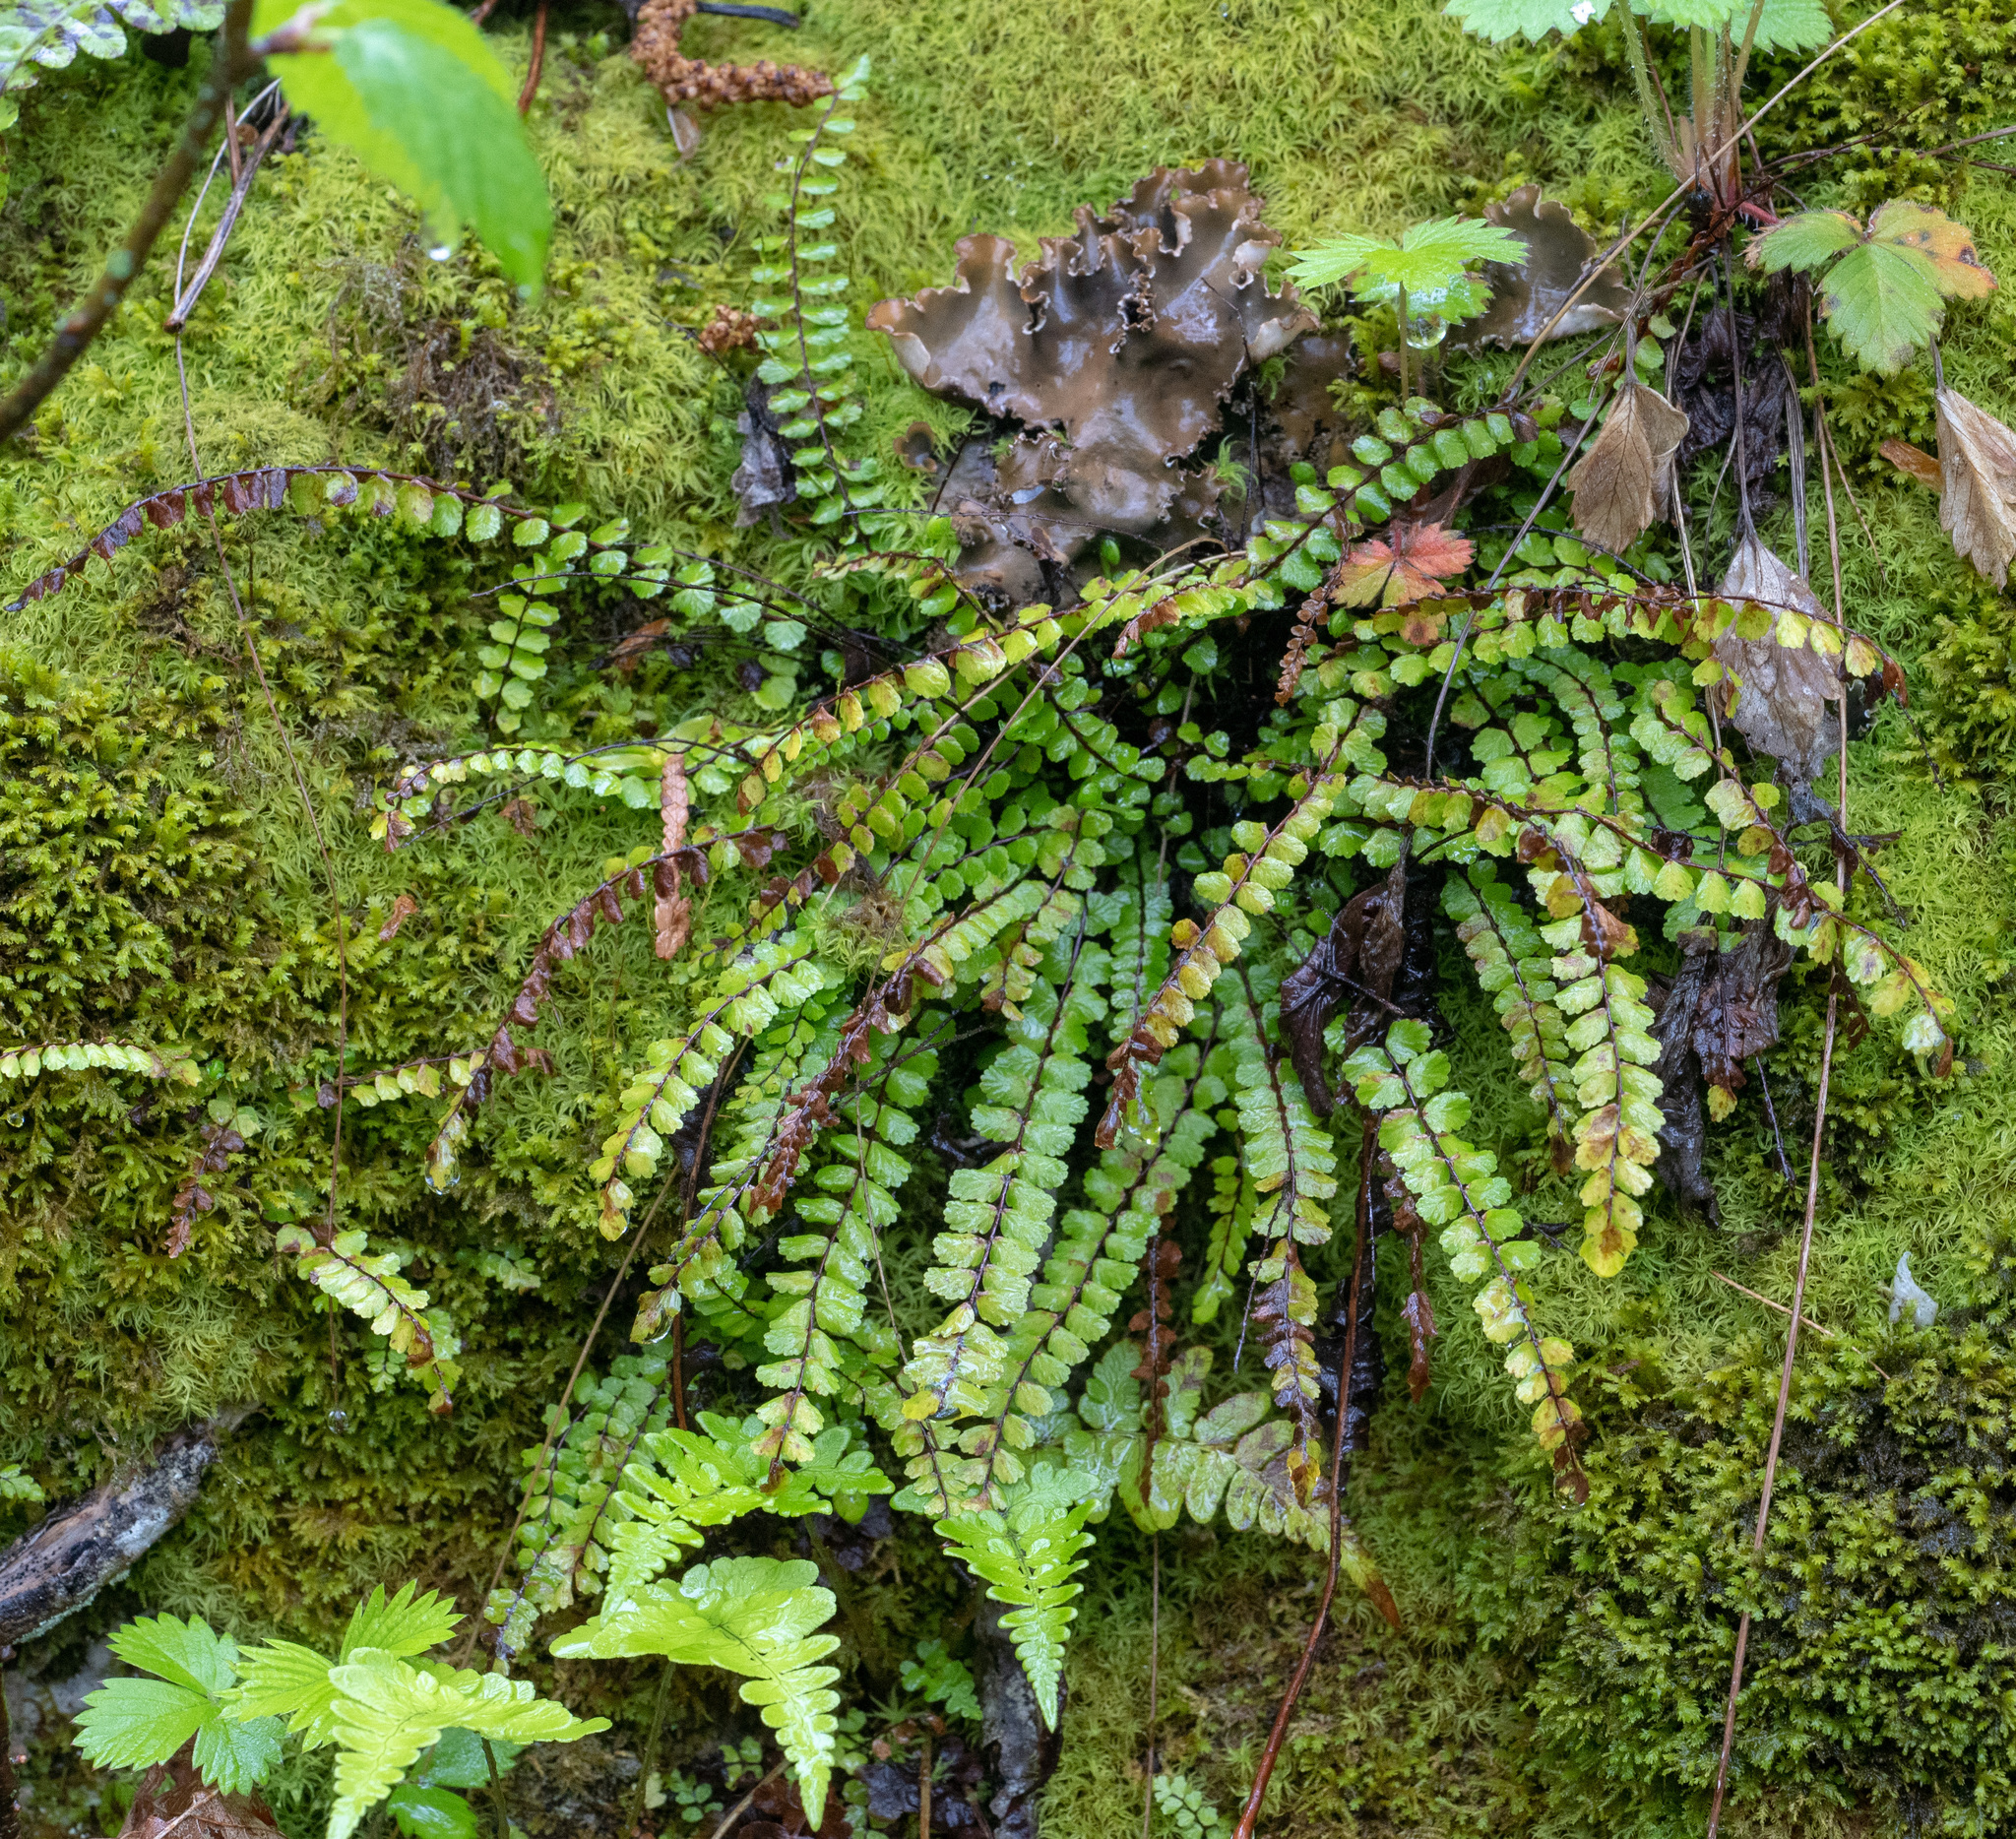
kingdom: Plantae
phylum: Tracheophyta
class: Polypodiopsida
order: Polypodiales
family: Aspleniaceae
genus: Asplenium
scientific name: Asplenium trichomanes
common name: Maidenhair spleenwort
